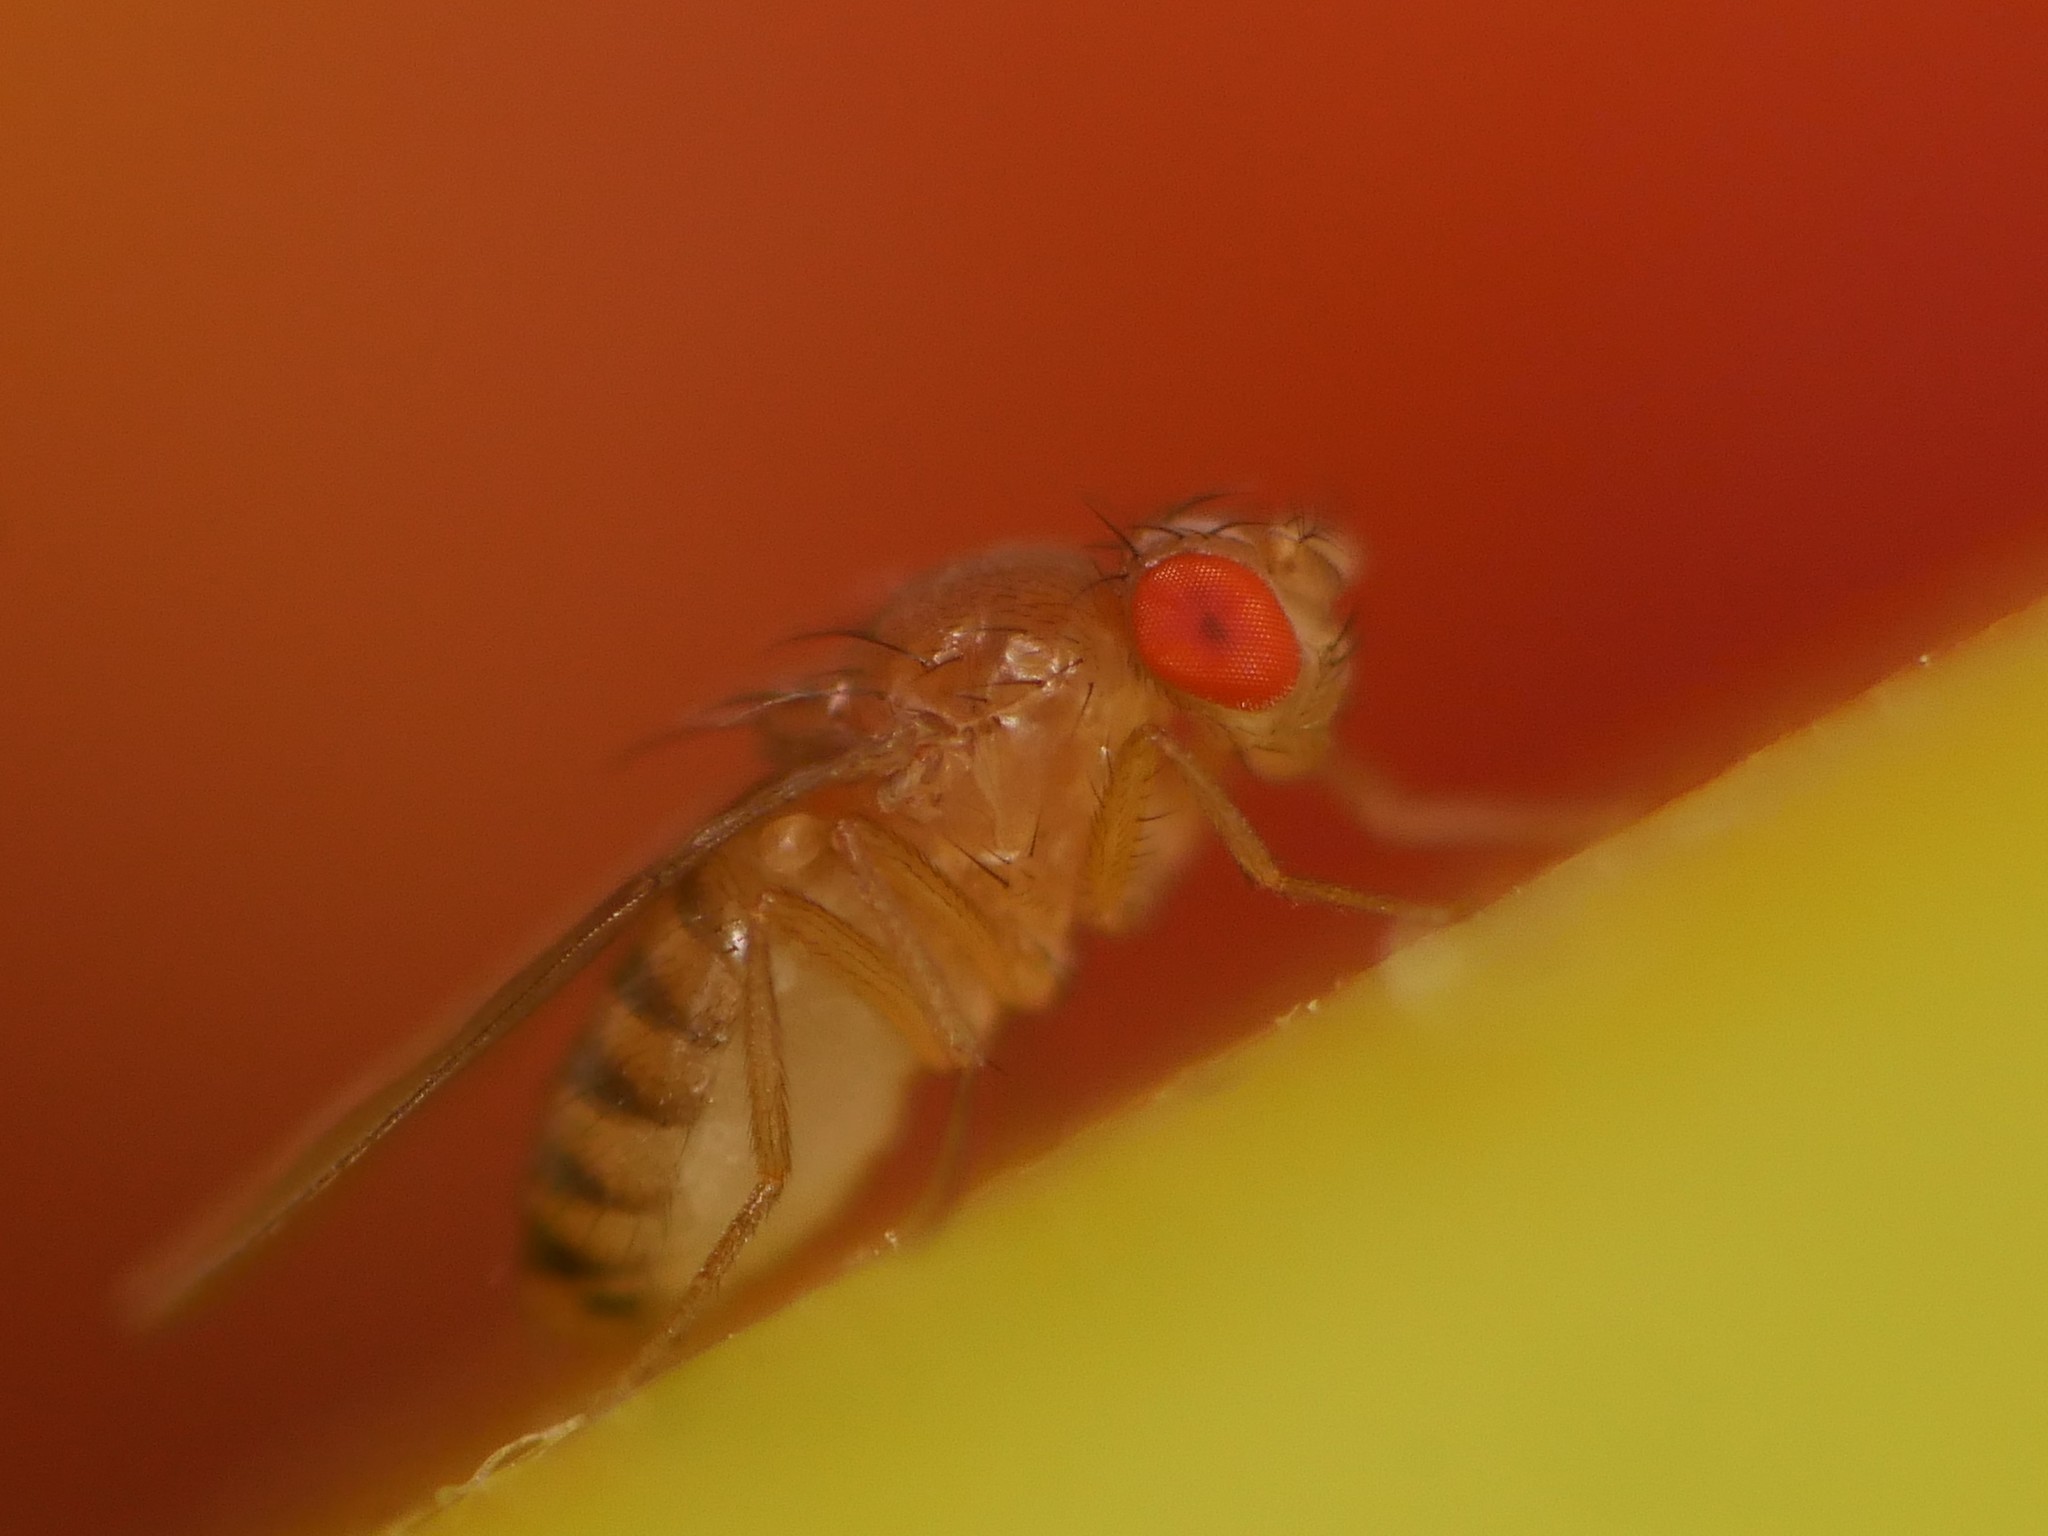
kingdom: Animalia
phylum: Arthropoda
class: Insecta
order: Diptera
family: Drosophilidae
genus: Drosophila
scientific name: Drosophila melanogaster
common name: Pomace fly
